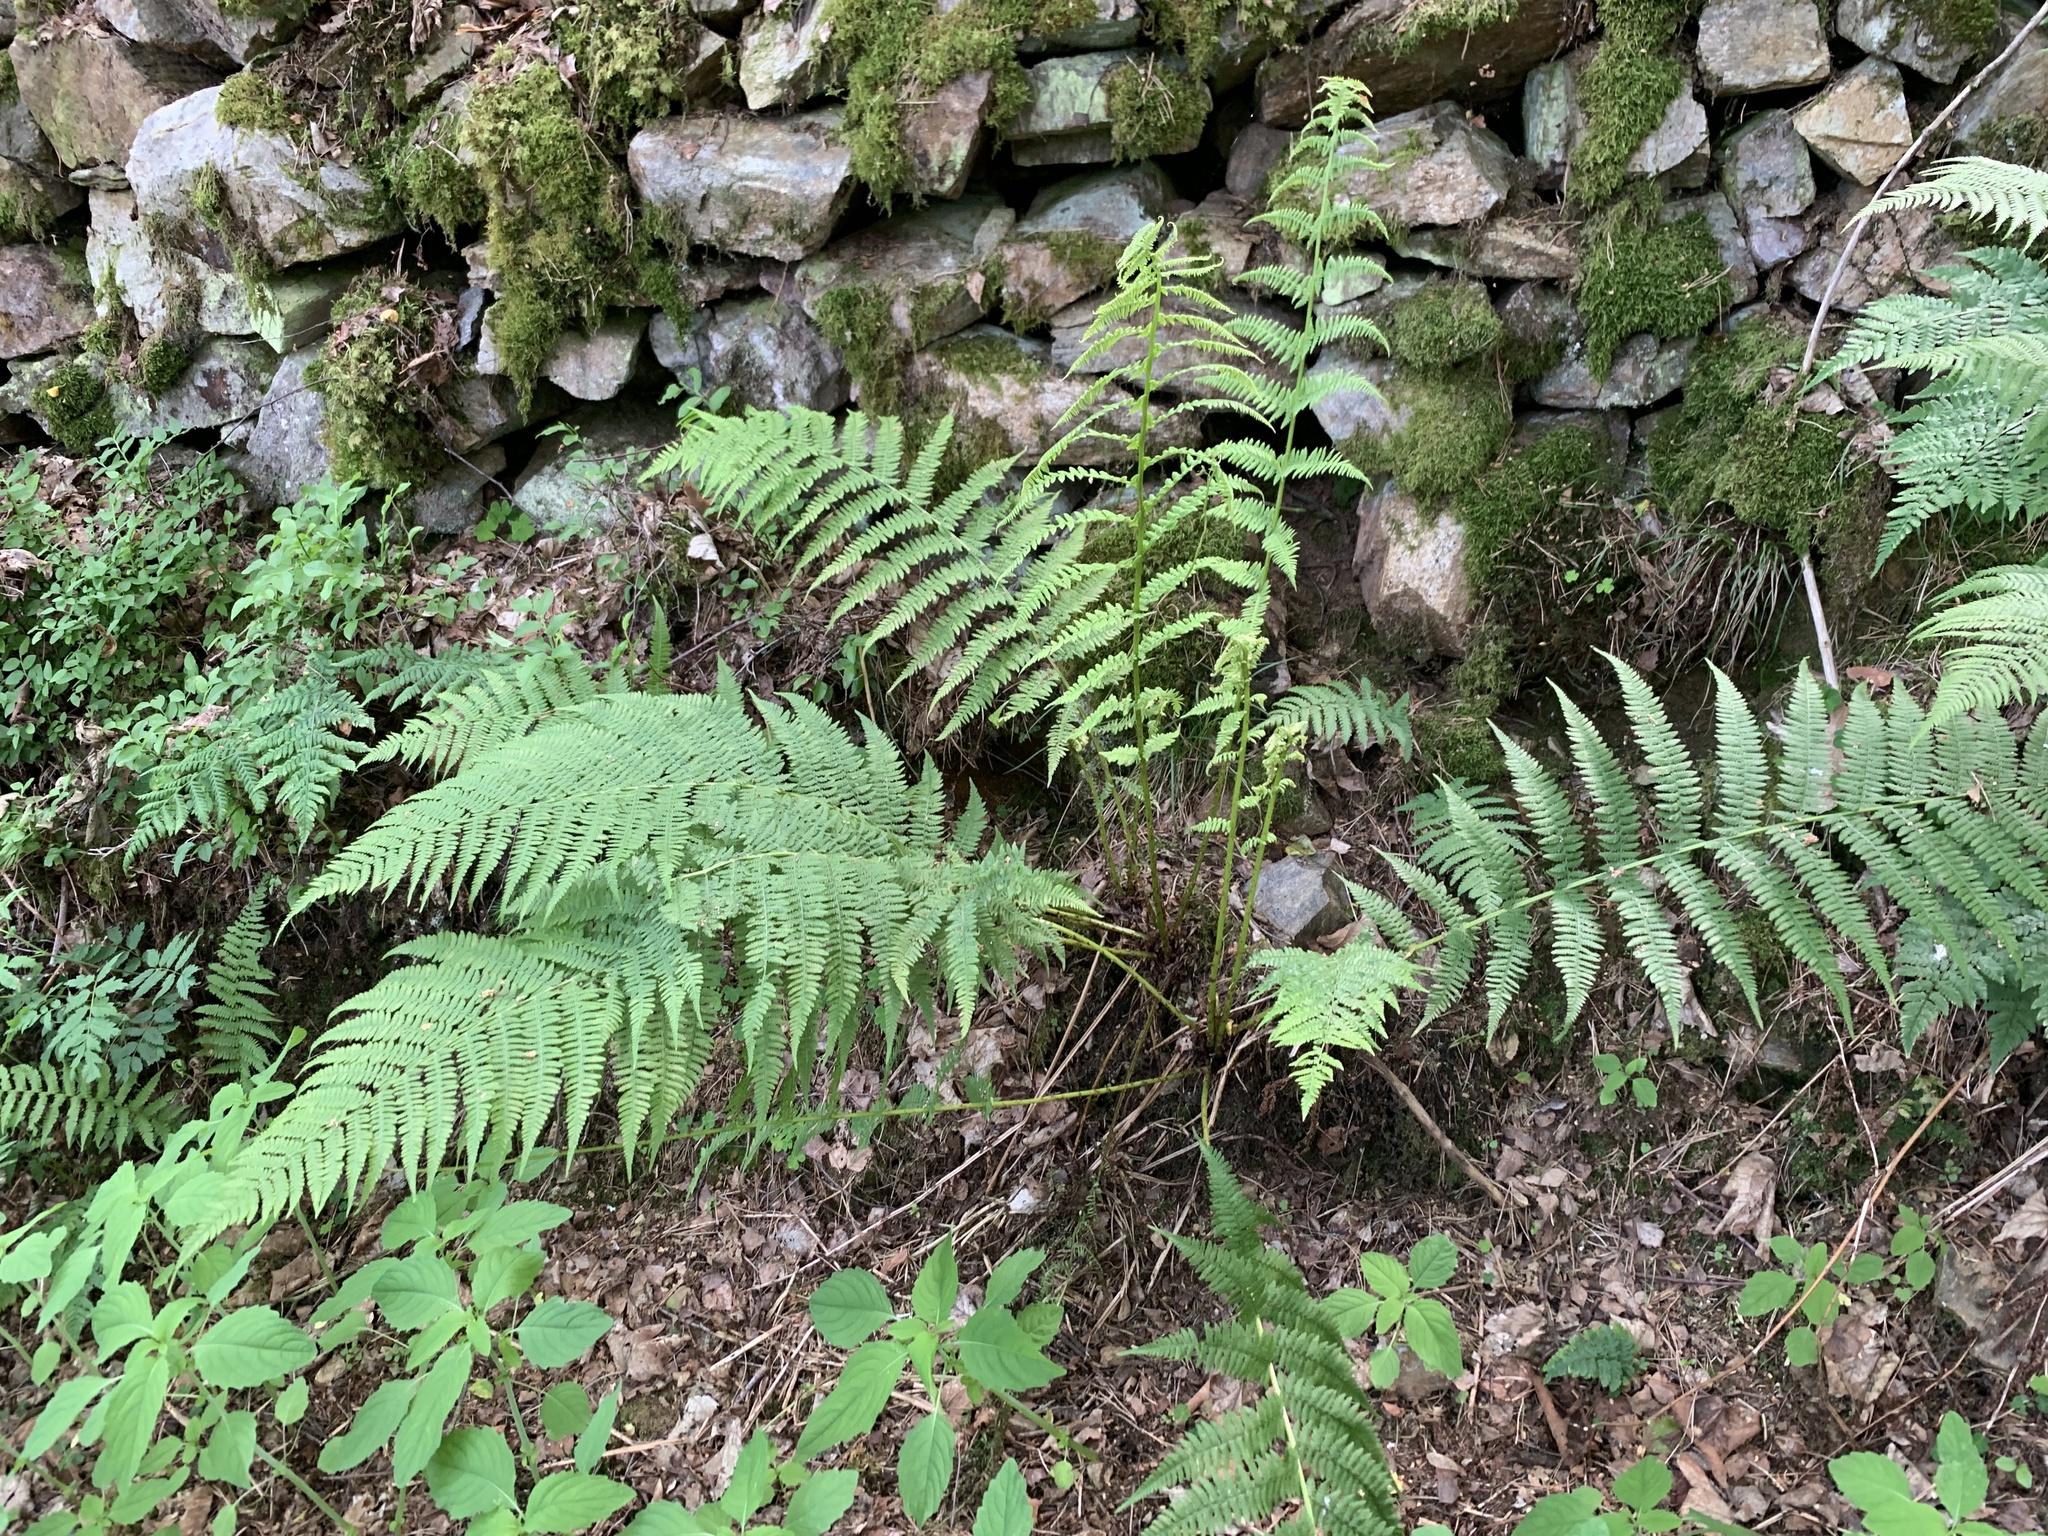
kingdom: Plantae
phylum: Tracheophyta
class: Polypodiopsida
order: Polypodiales
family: Athyriaceae
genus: Athyrium
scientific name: Athyrium filix-femina
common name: Lady fern
